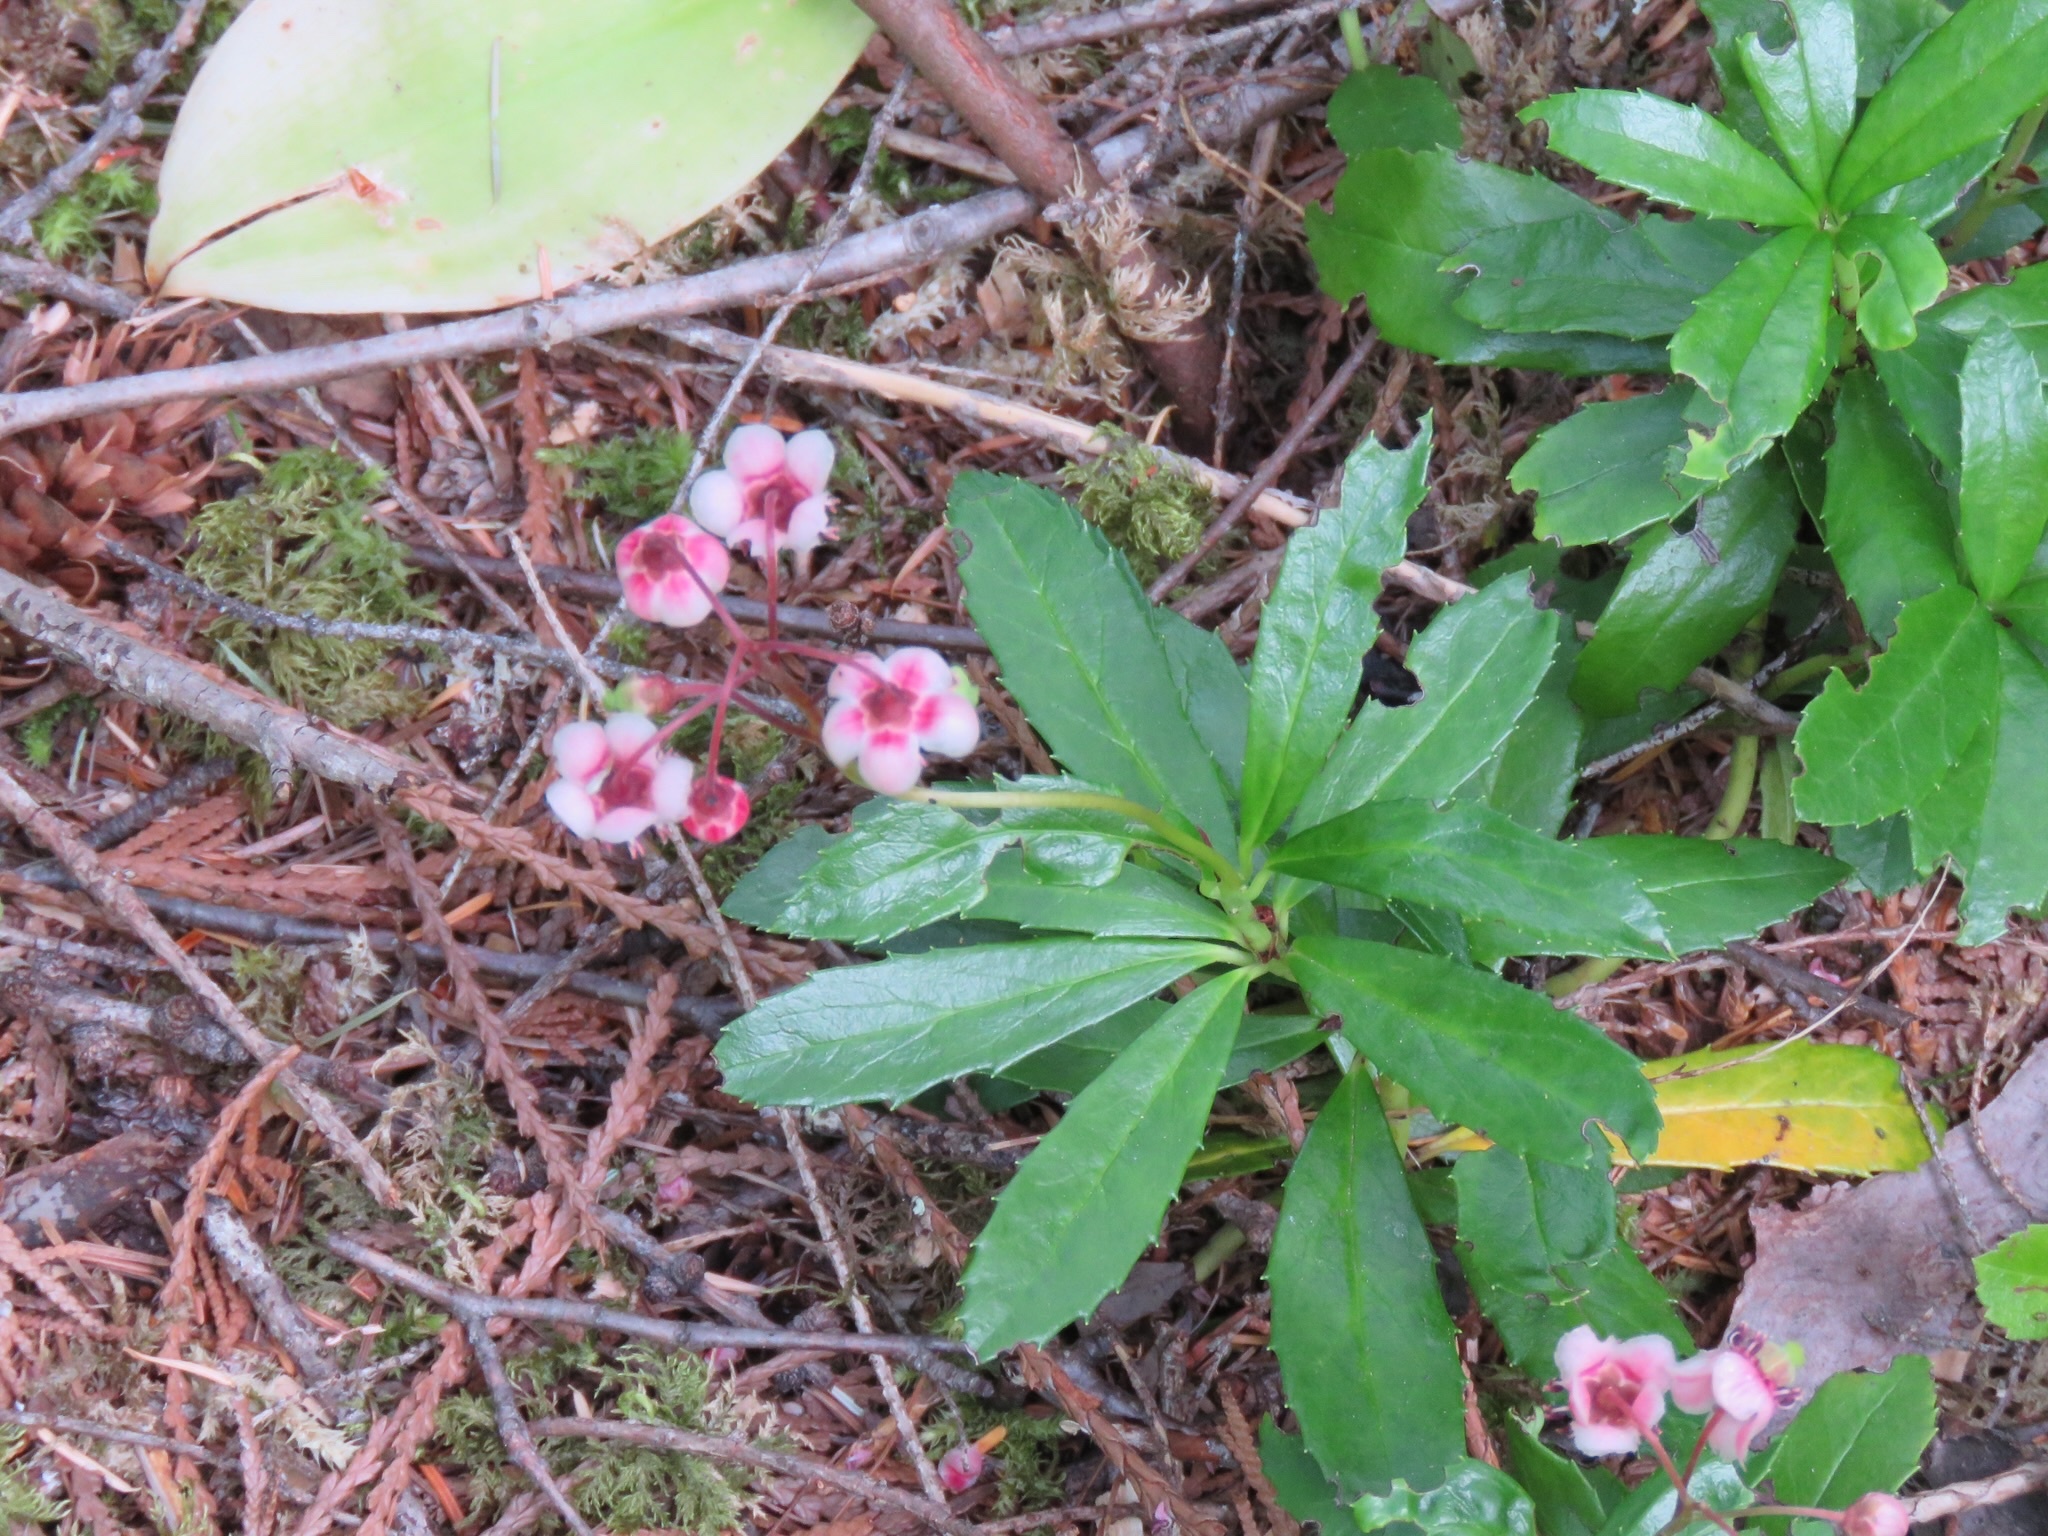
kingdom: Plantae
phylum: Tracheophyta
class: Magnoliopsida
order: Ericales
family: Ericaceae
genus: Chimaphila
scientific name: Chimaphila umbellata
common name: Pipsissewa
